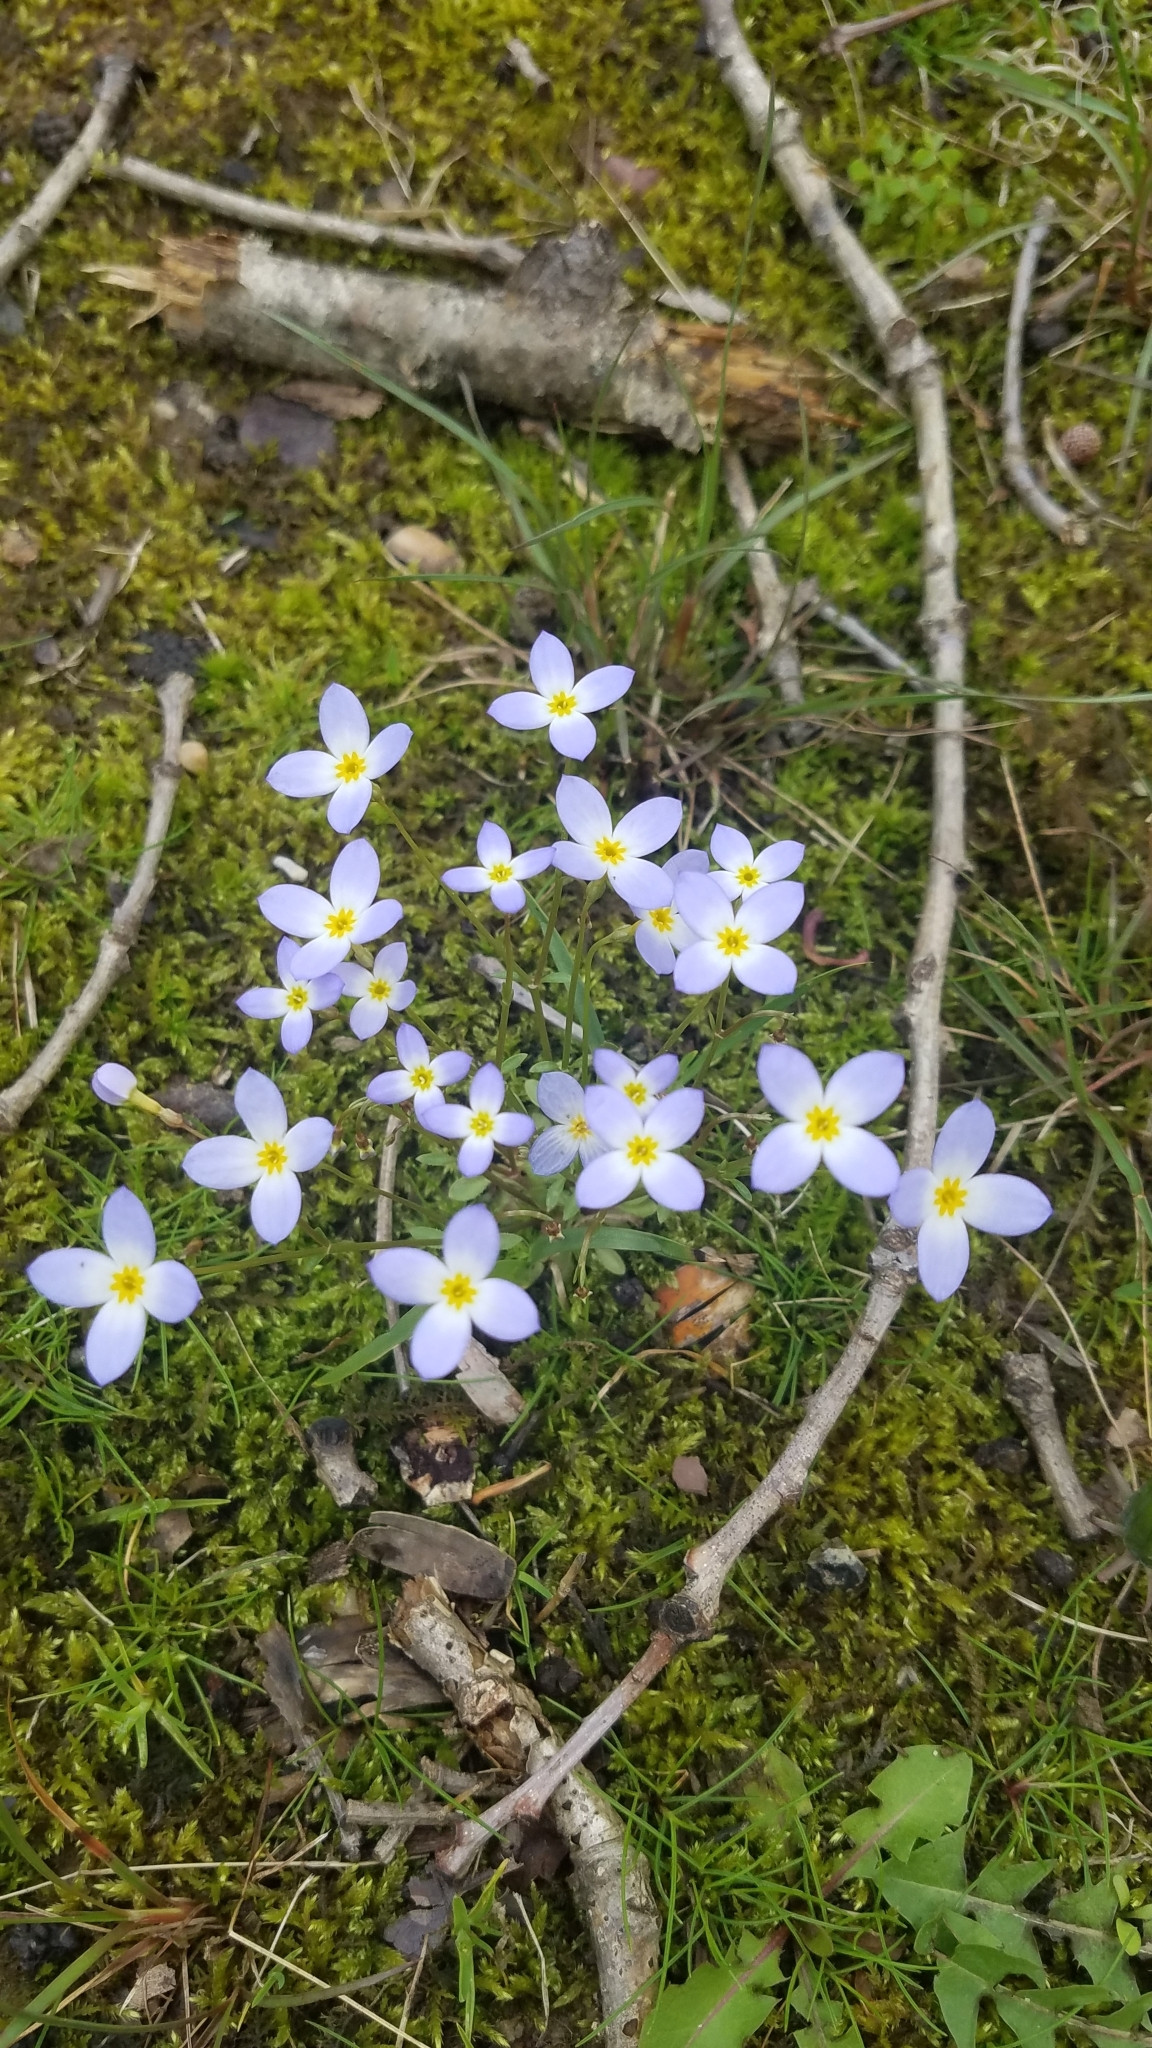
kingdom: Plantae
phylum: Tracheophyta
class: Magnoliopsida
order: Gentianales
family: Rubiaceae
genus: Houstonia
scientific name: Houstonia caerulea
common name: Bluets
